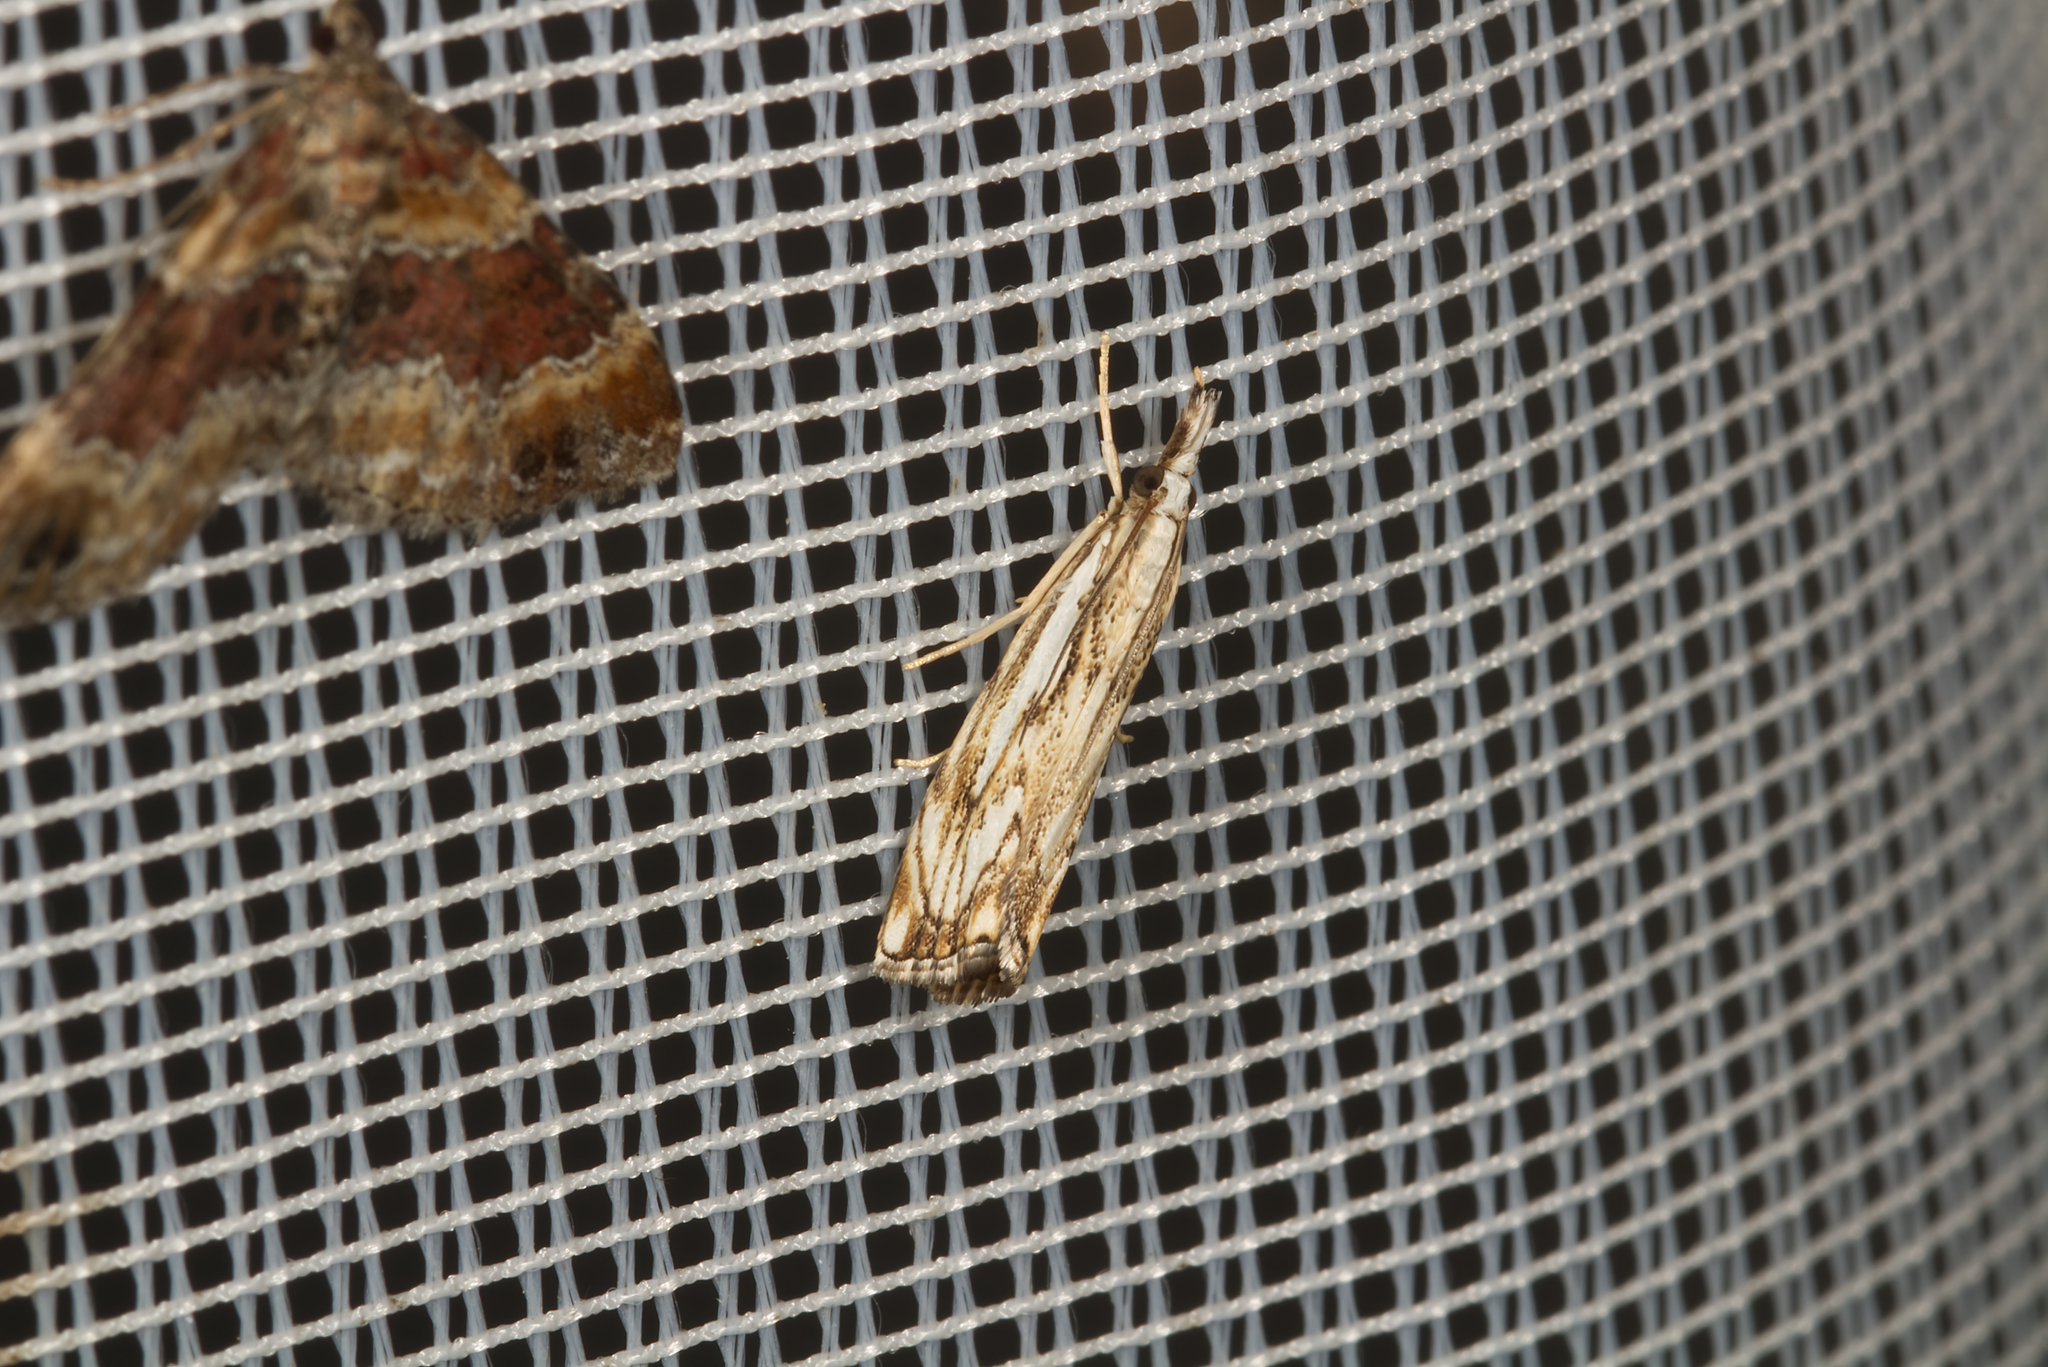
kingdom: Animalia
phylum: Arthropoda
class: Insecta
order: Lepidoptera
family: Crambidae
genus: Catoptria
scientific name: Catoptria falsella
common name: Chequered grass-veneer
